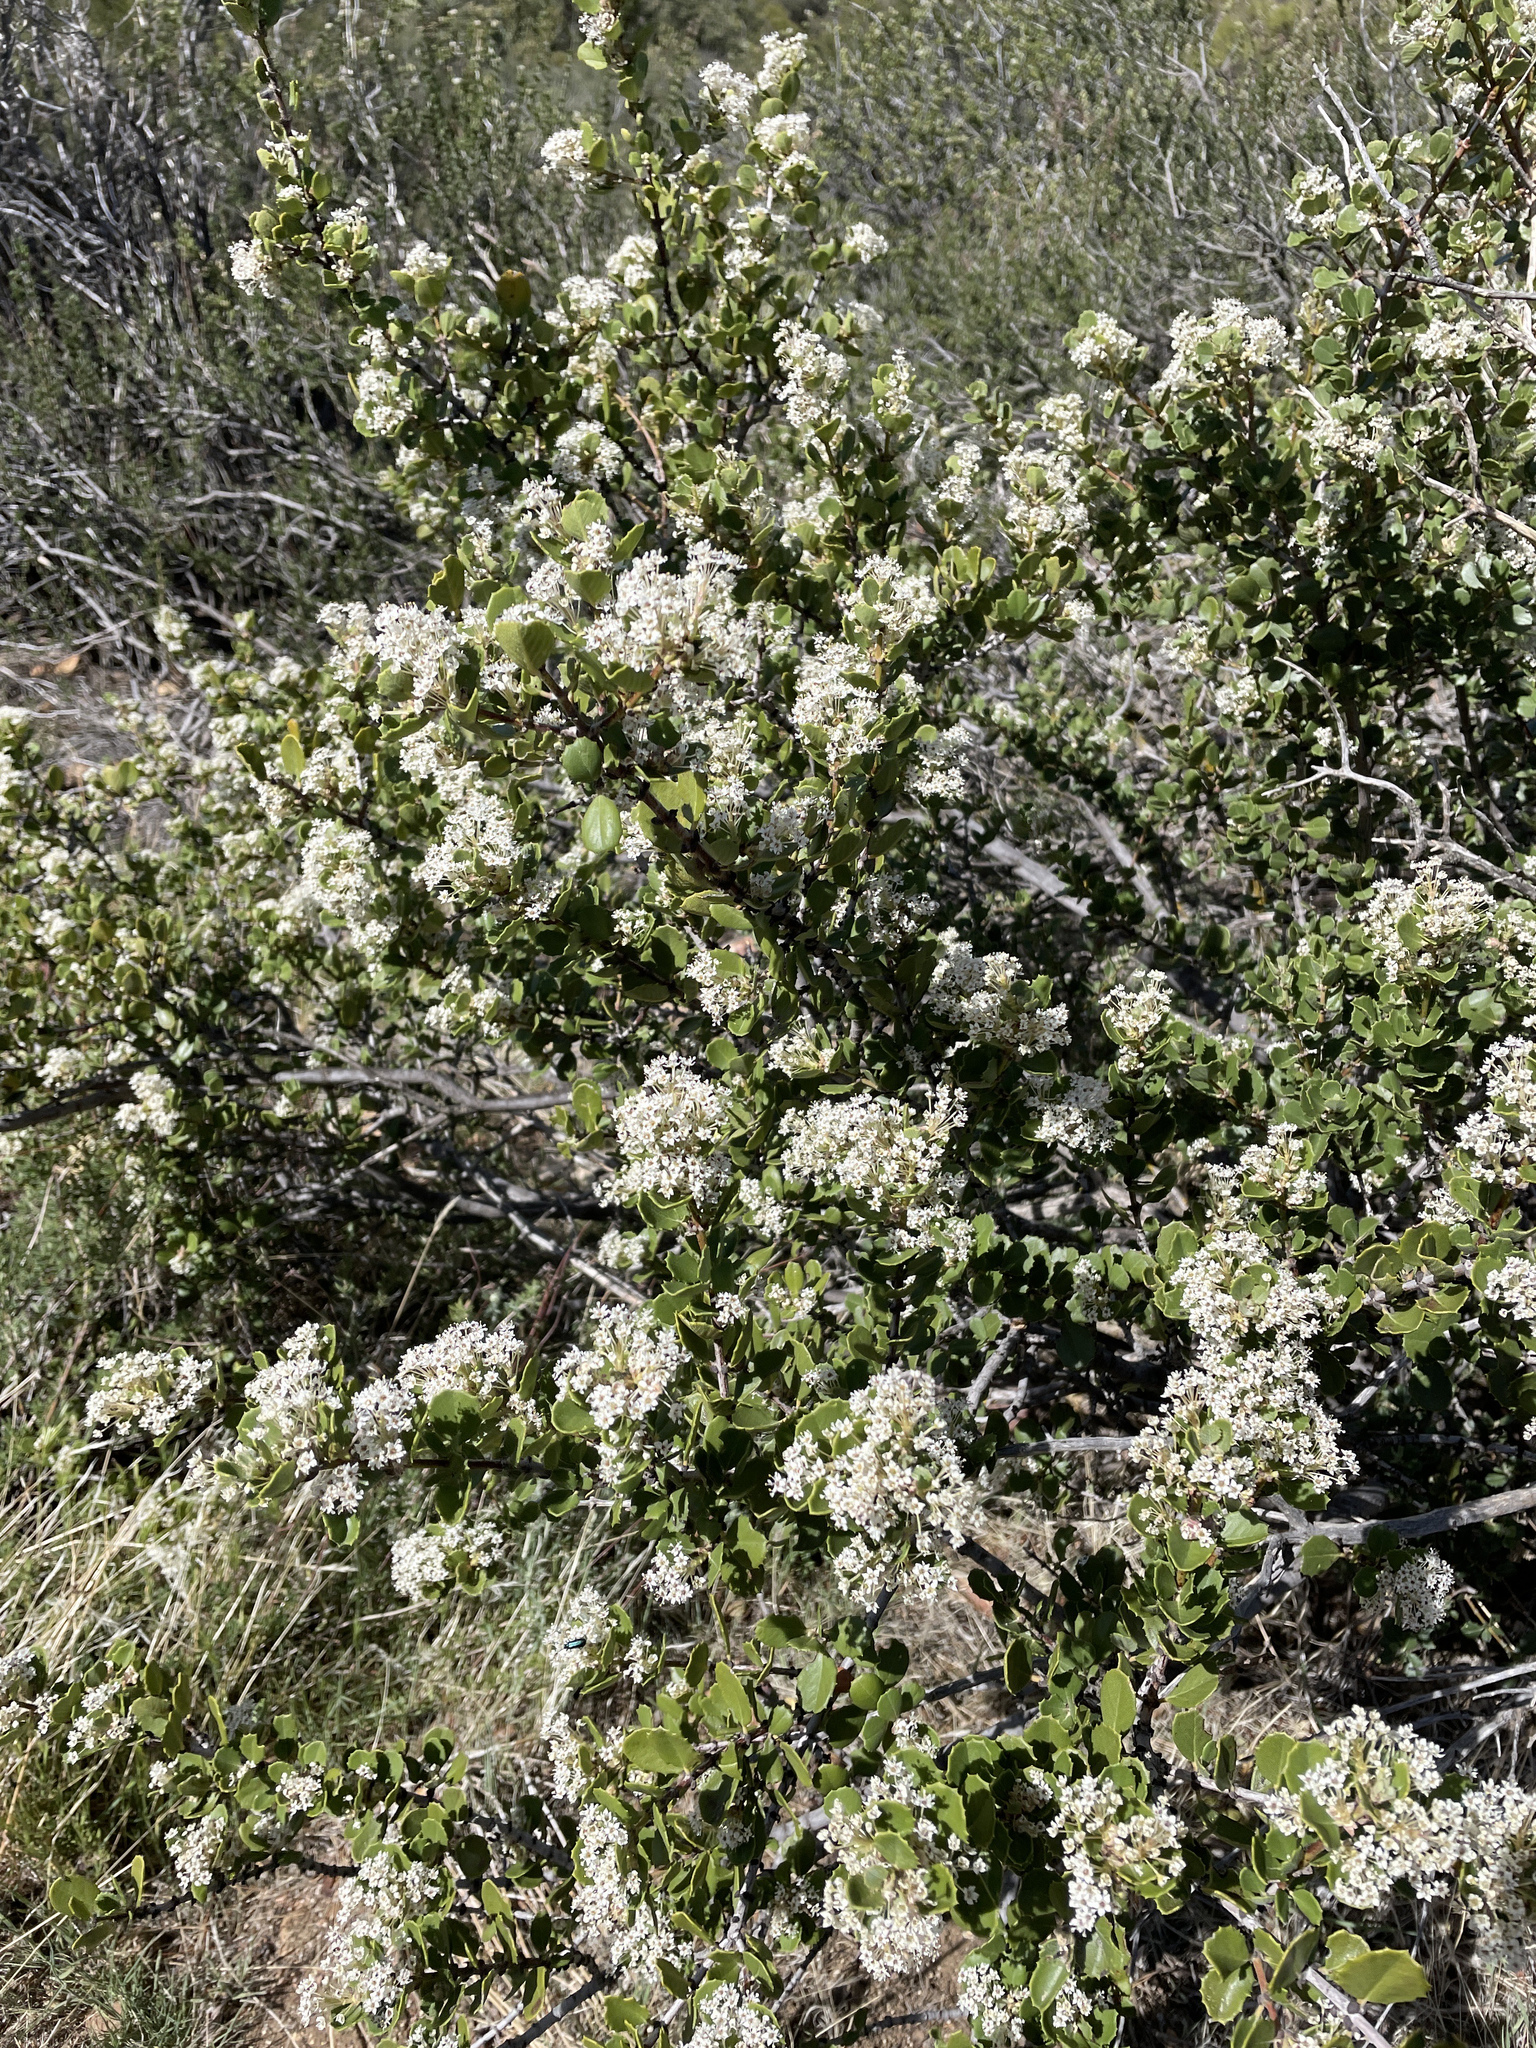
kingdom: Plantae
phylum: Tracheophyta
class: Magnoliopsida
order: Rosales
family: Rhamnaceae
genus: Ceanothus
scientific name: Ceanothus perplexans
